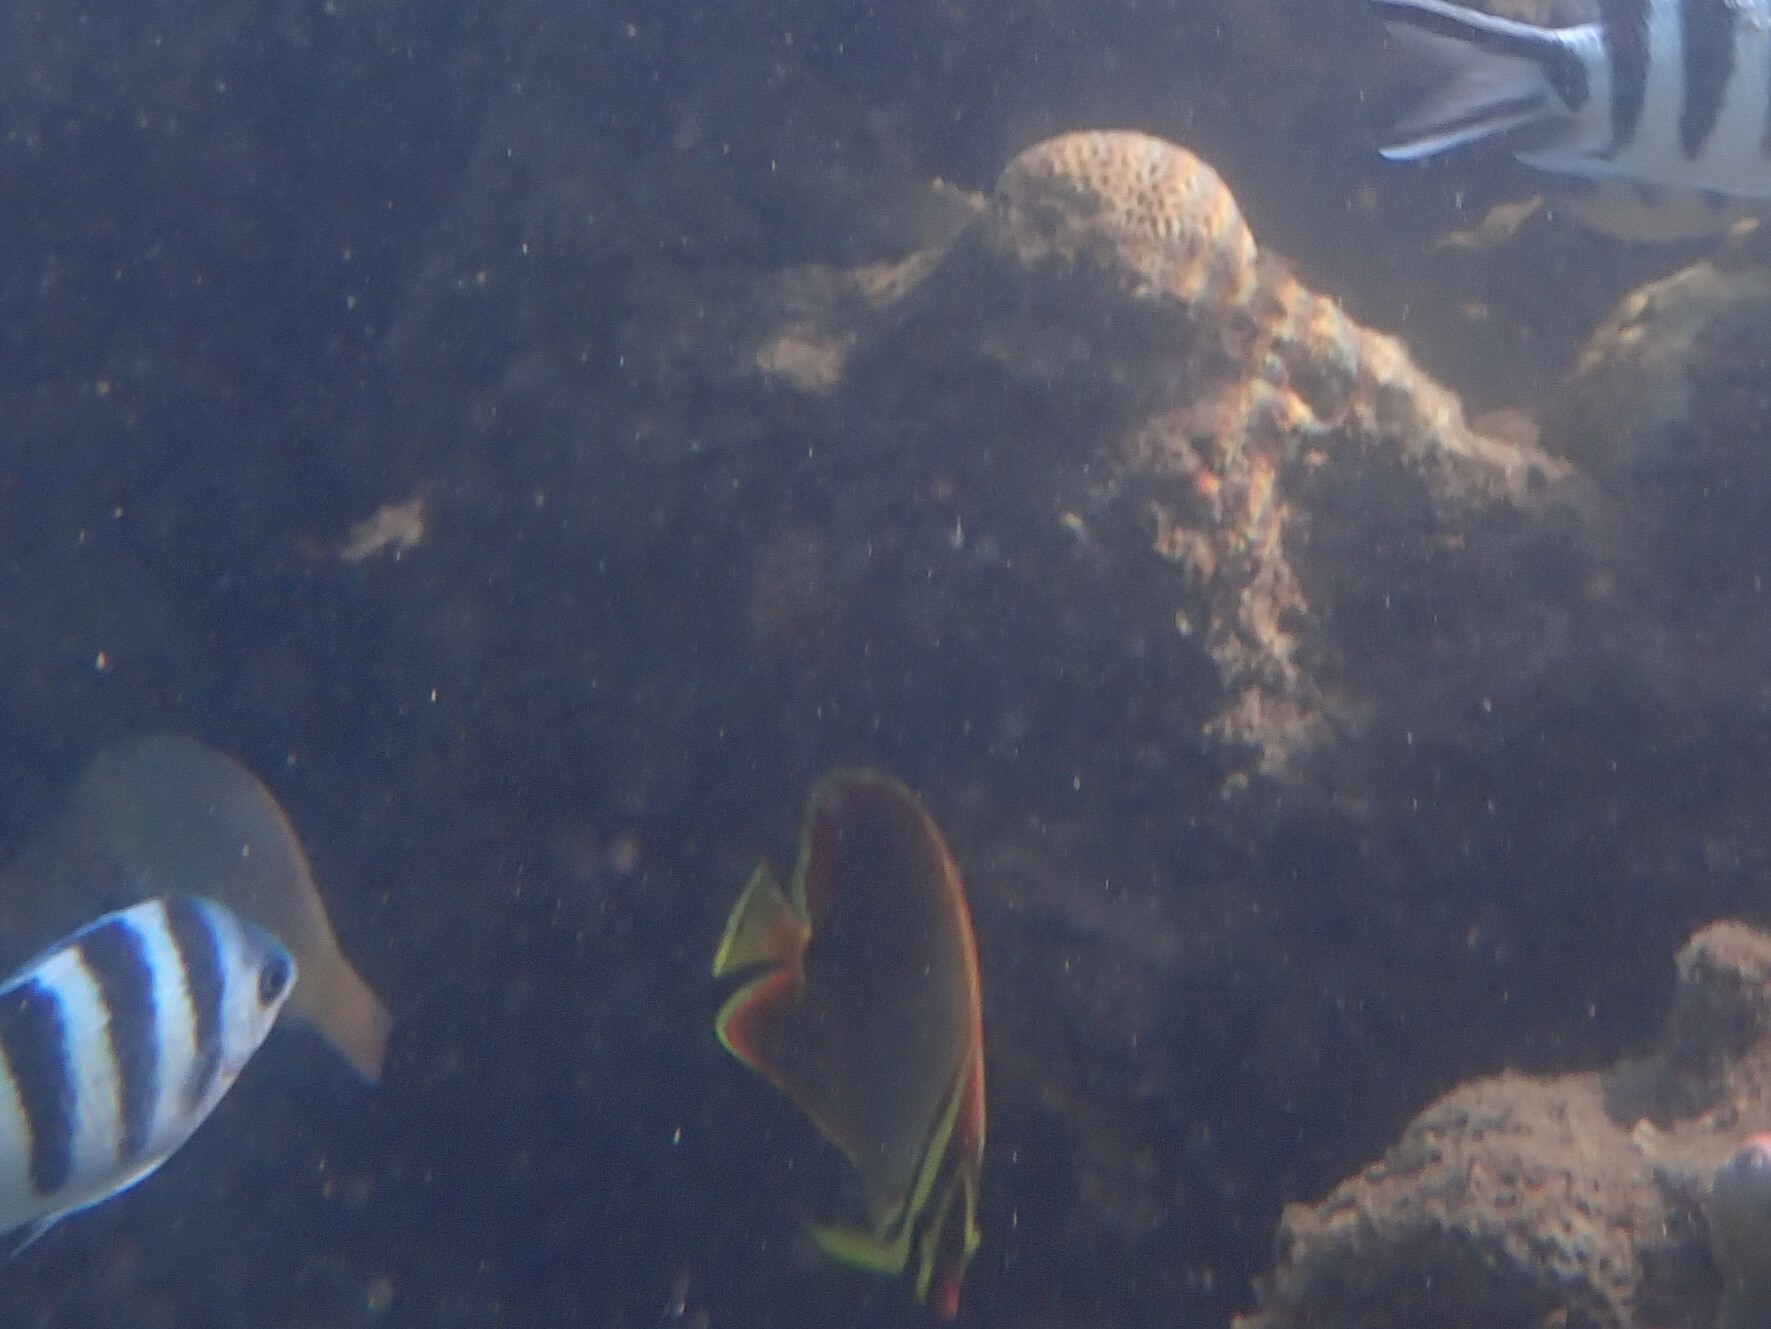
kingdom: Animalia
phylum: Chordata
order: Perciformes
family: Chaetodontidae
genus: Chaetodon
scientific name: Chaetodon baronessa
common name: Triangular butterflyfish
